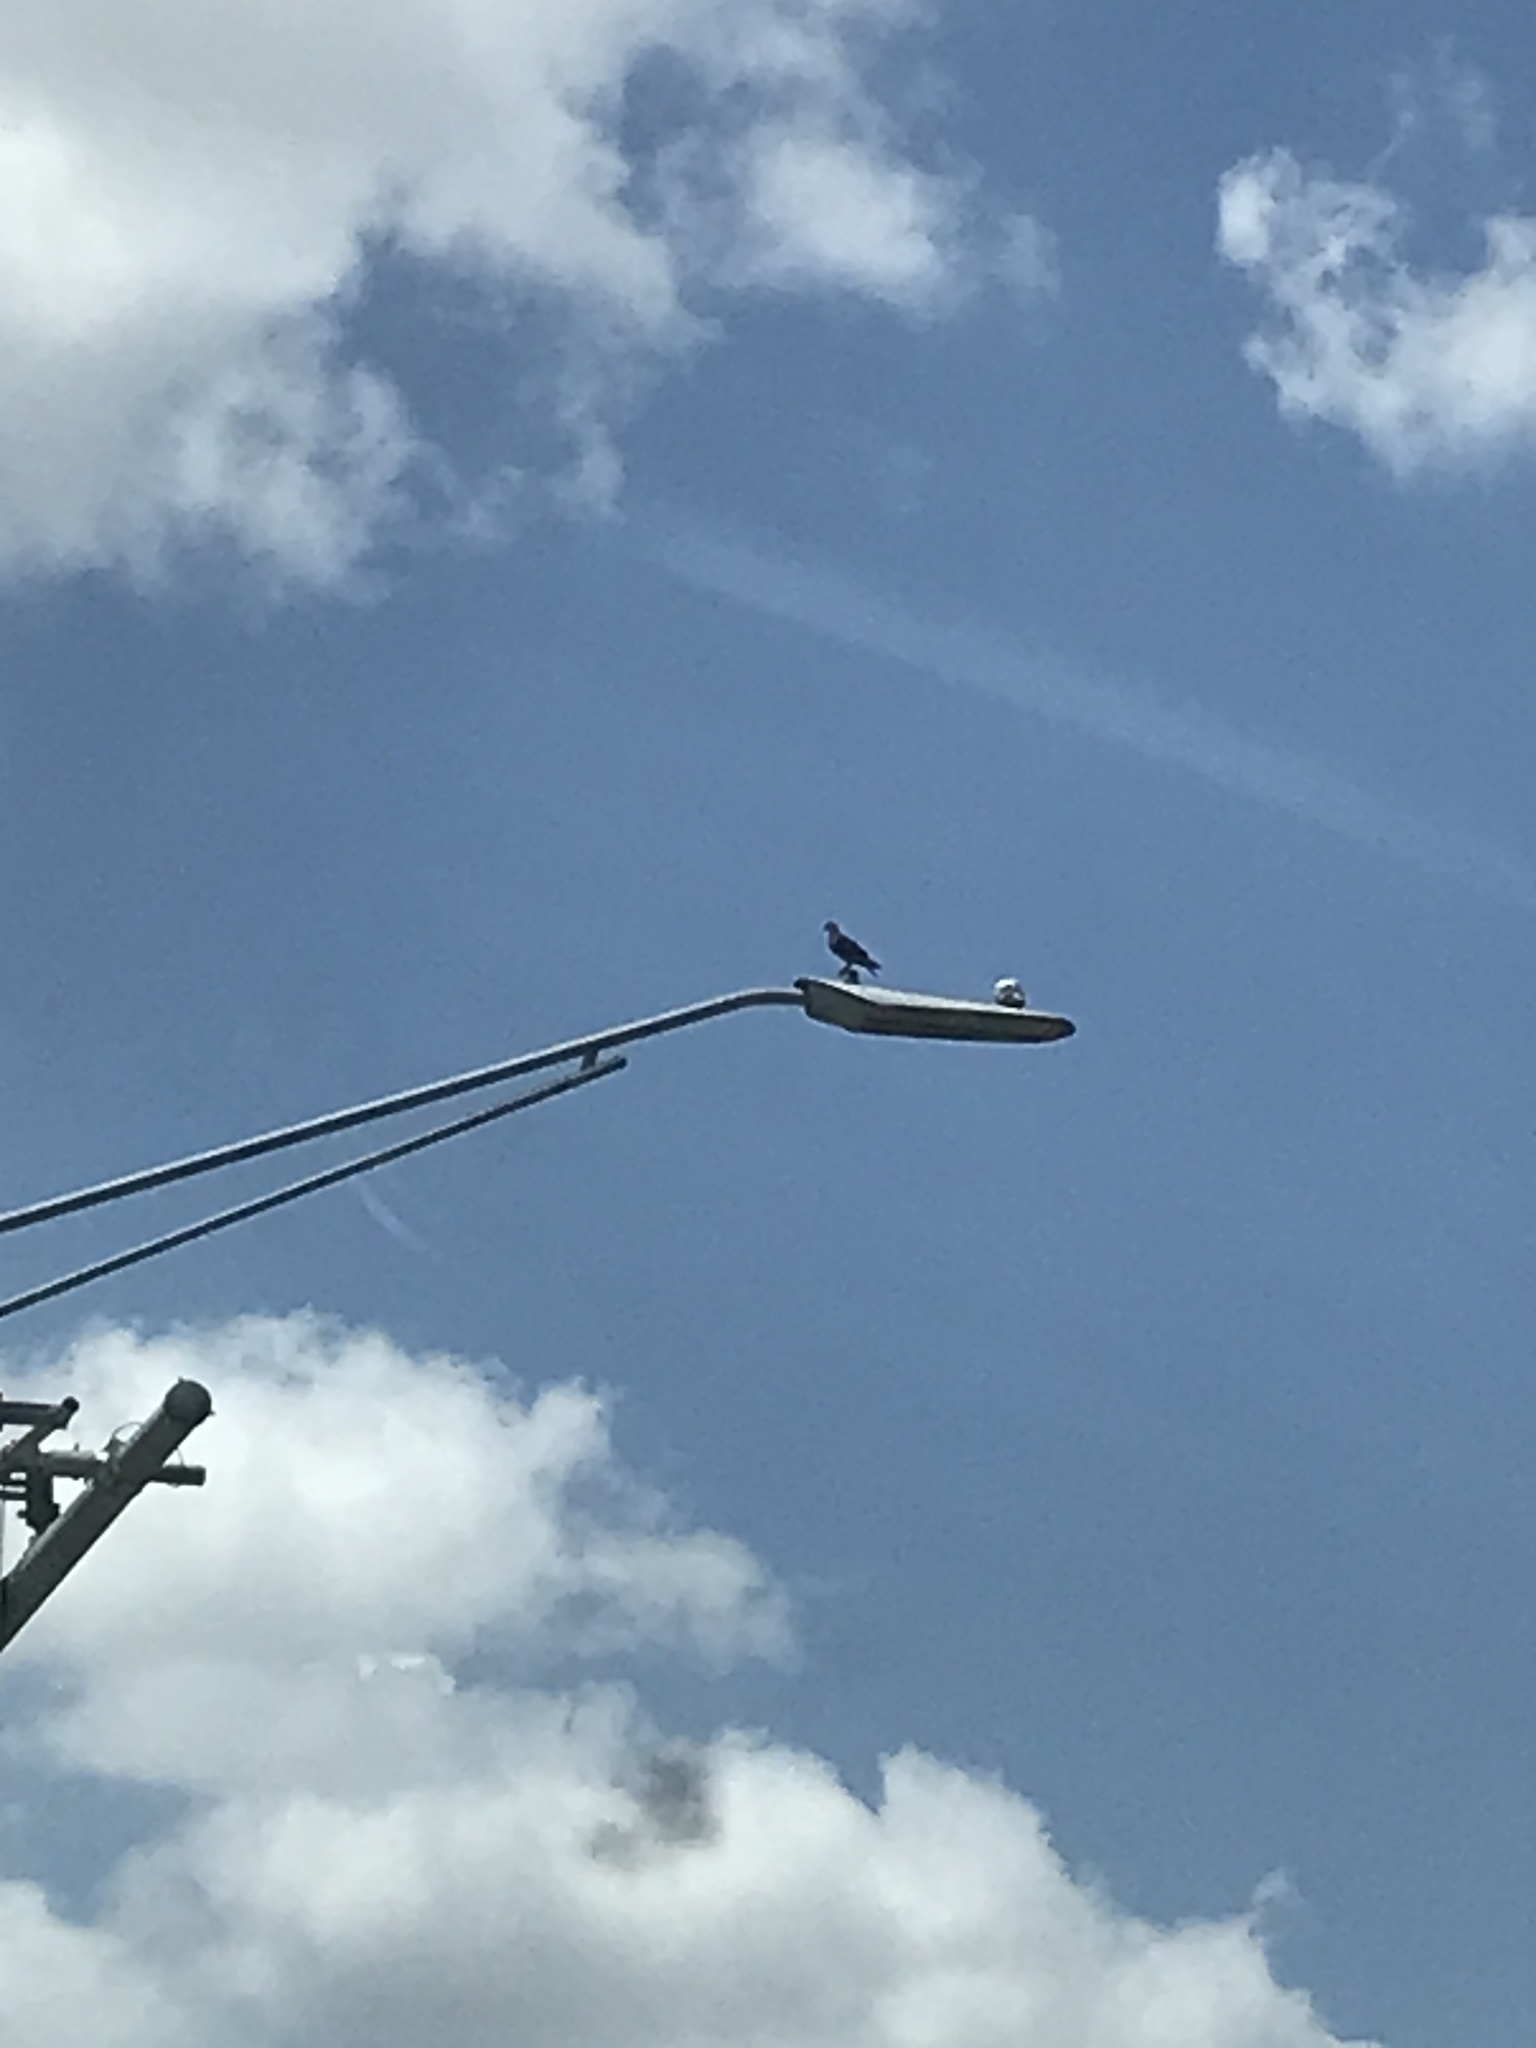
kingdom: Animalia
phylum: Chordata
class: Aves
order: Columbiformes
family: Columbidae
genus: Columba
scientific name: Columba livia
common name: Rock pigeon
